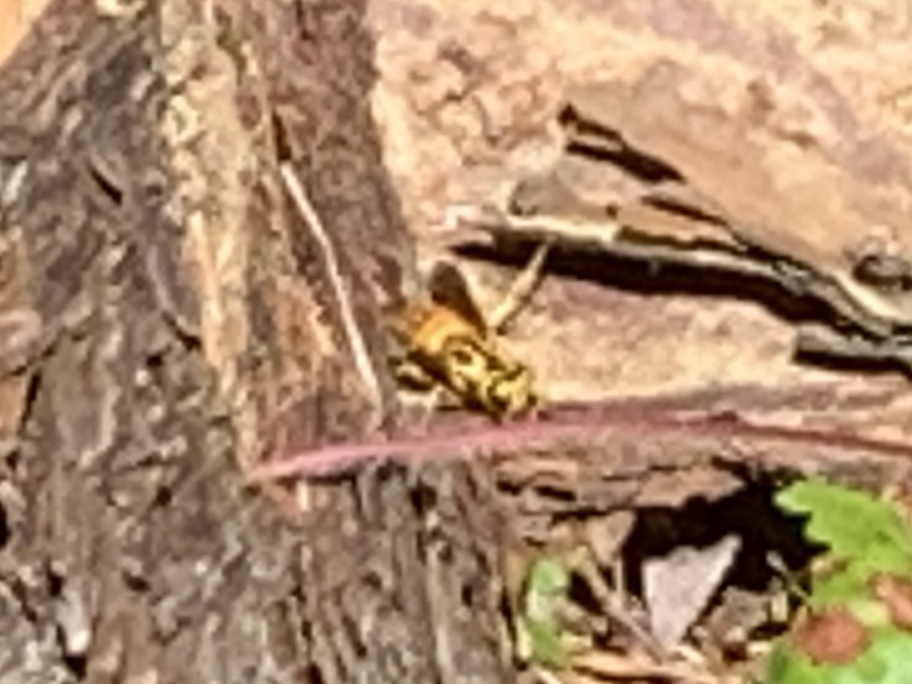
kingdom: Animalia
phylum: Arthropoda
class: Insecta
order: Hymenoptera
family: Vespidae
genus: Vespula
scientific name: Vespula squamosa
